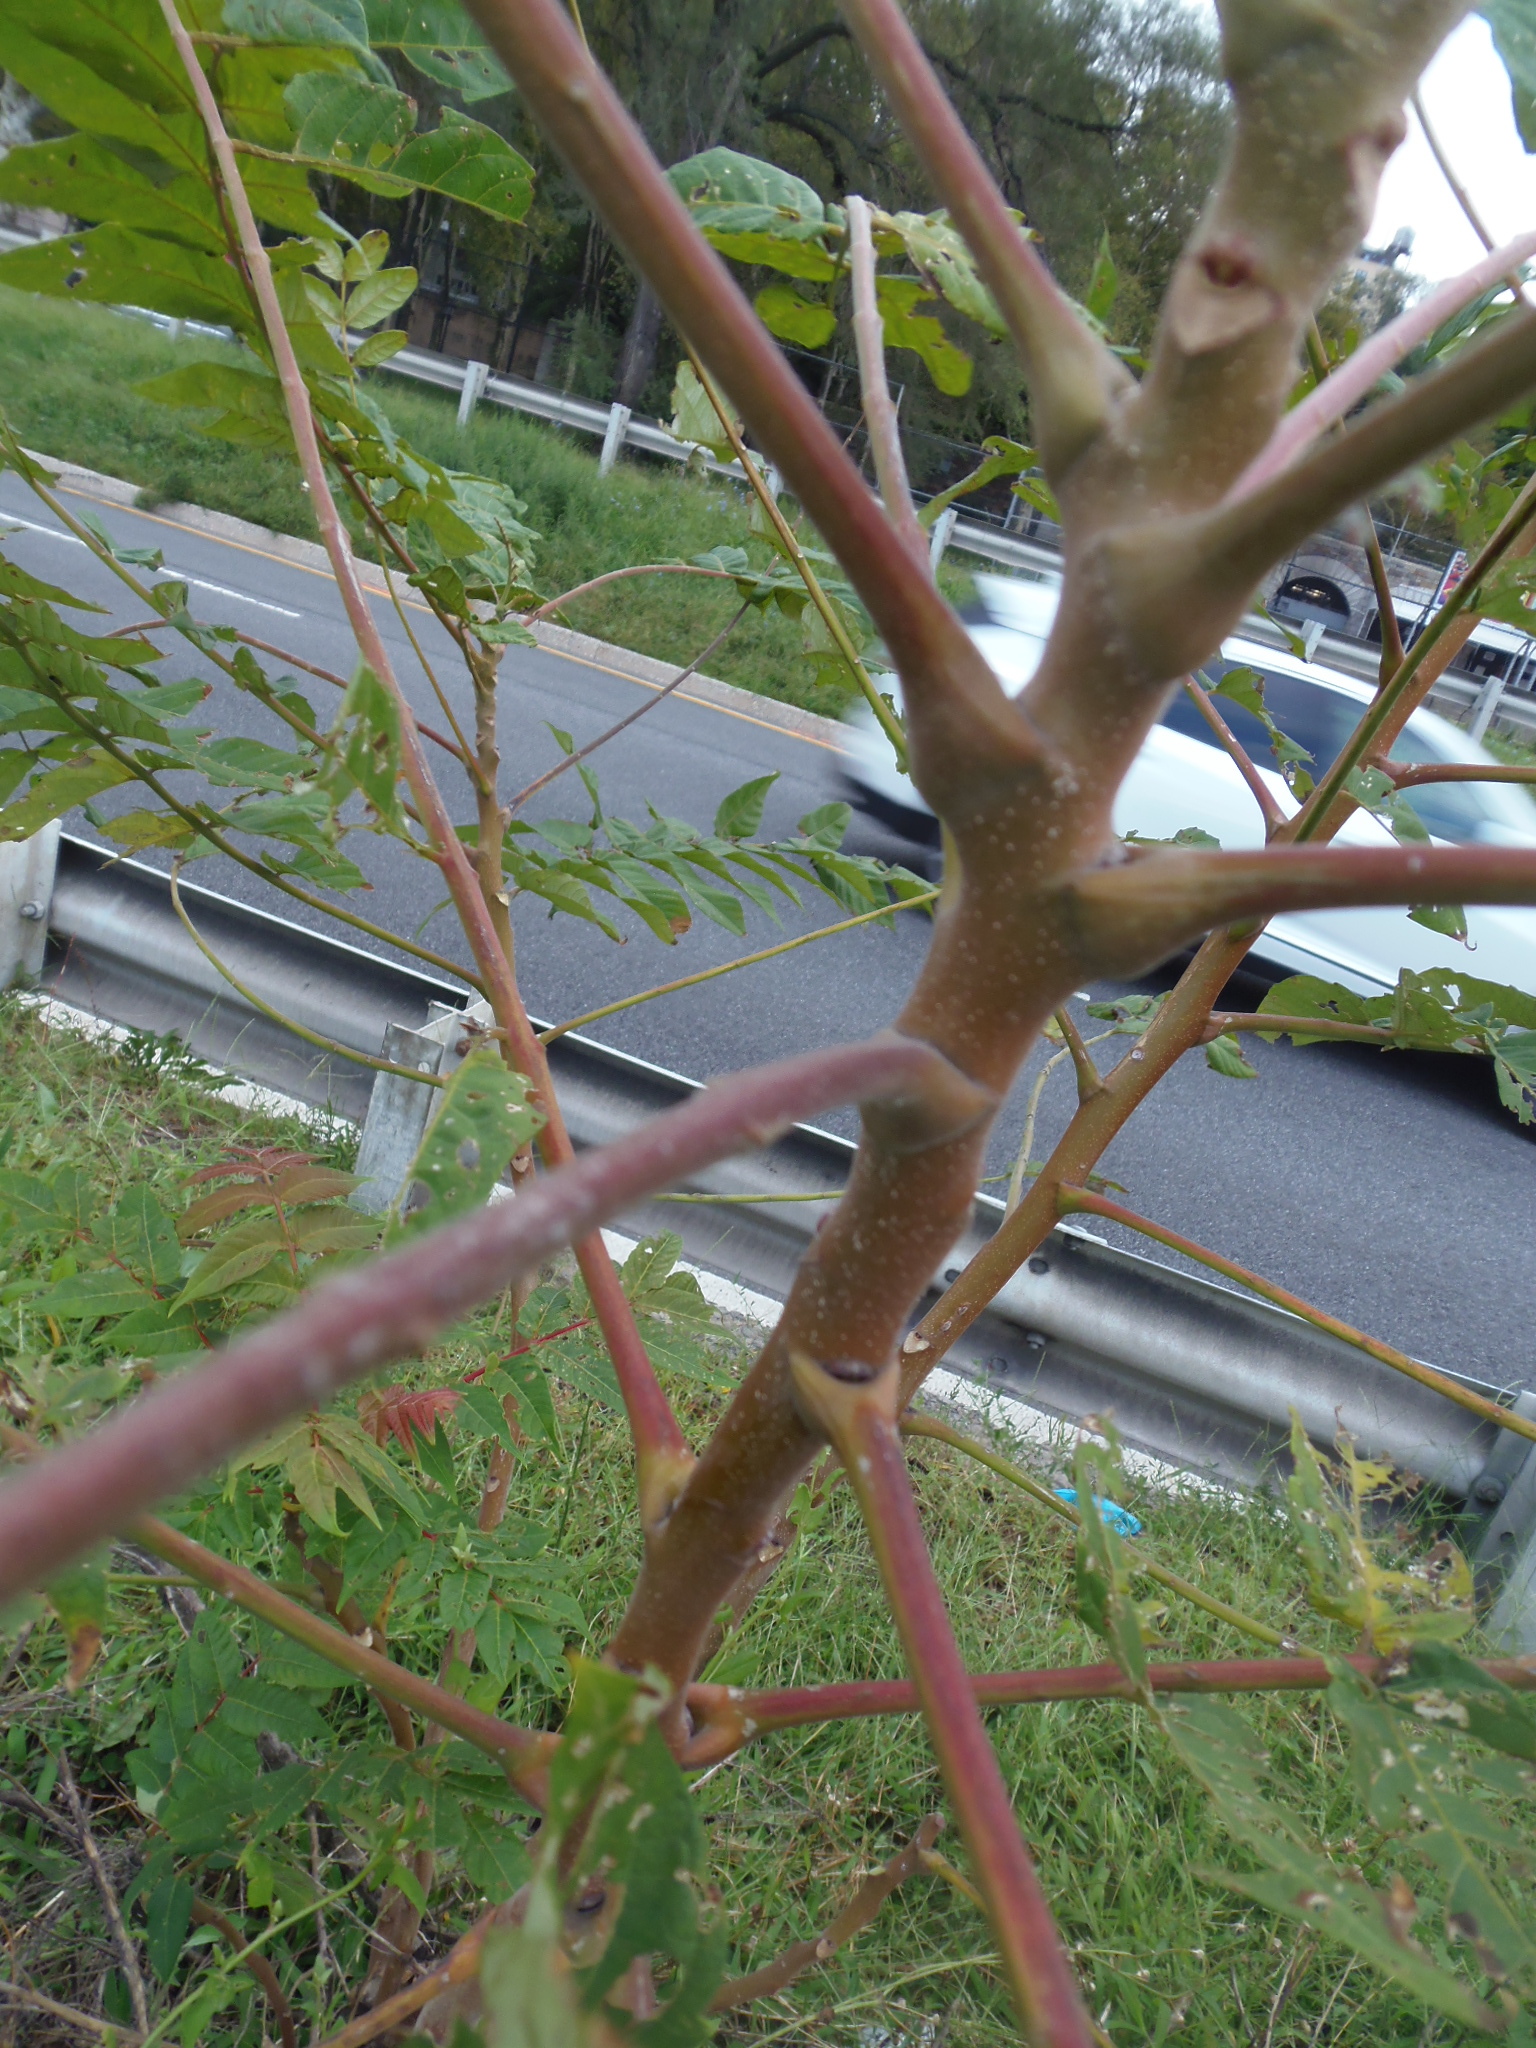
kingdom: Plantae
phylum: Tracheophyta
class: Magnoliopsida
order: Sapindales
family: Simaroubaceae
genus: Ailanthus
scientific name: Ailanthus altissima
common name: Tree-of-heaven
